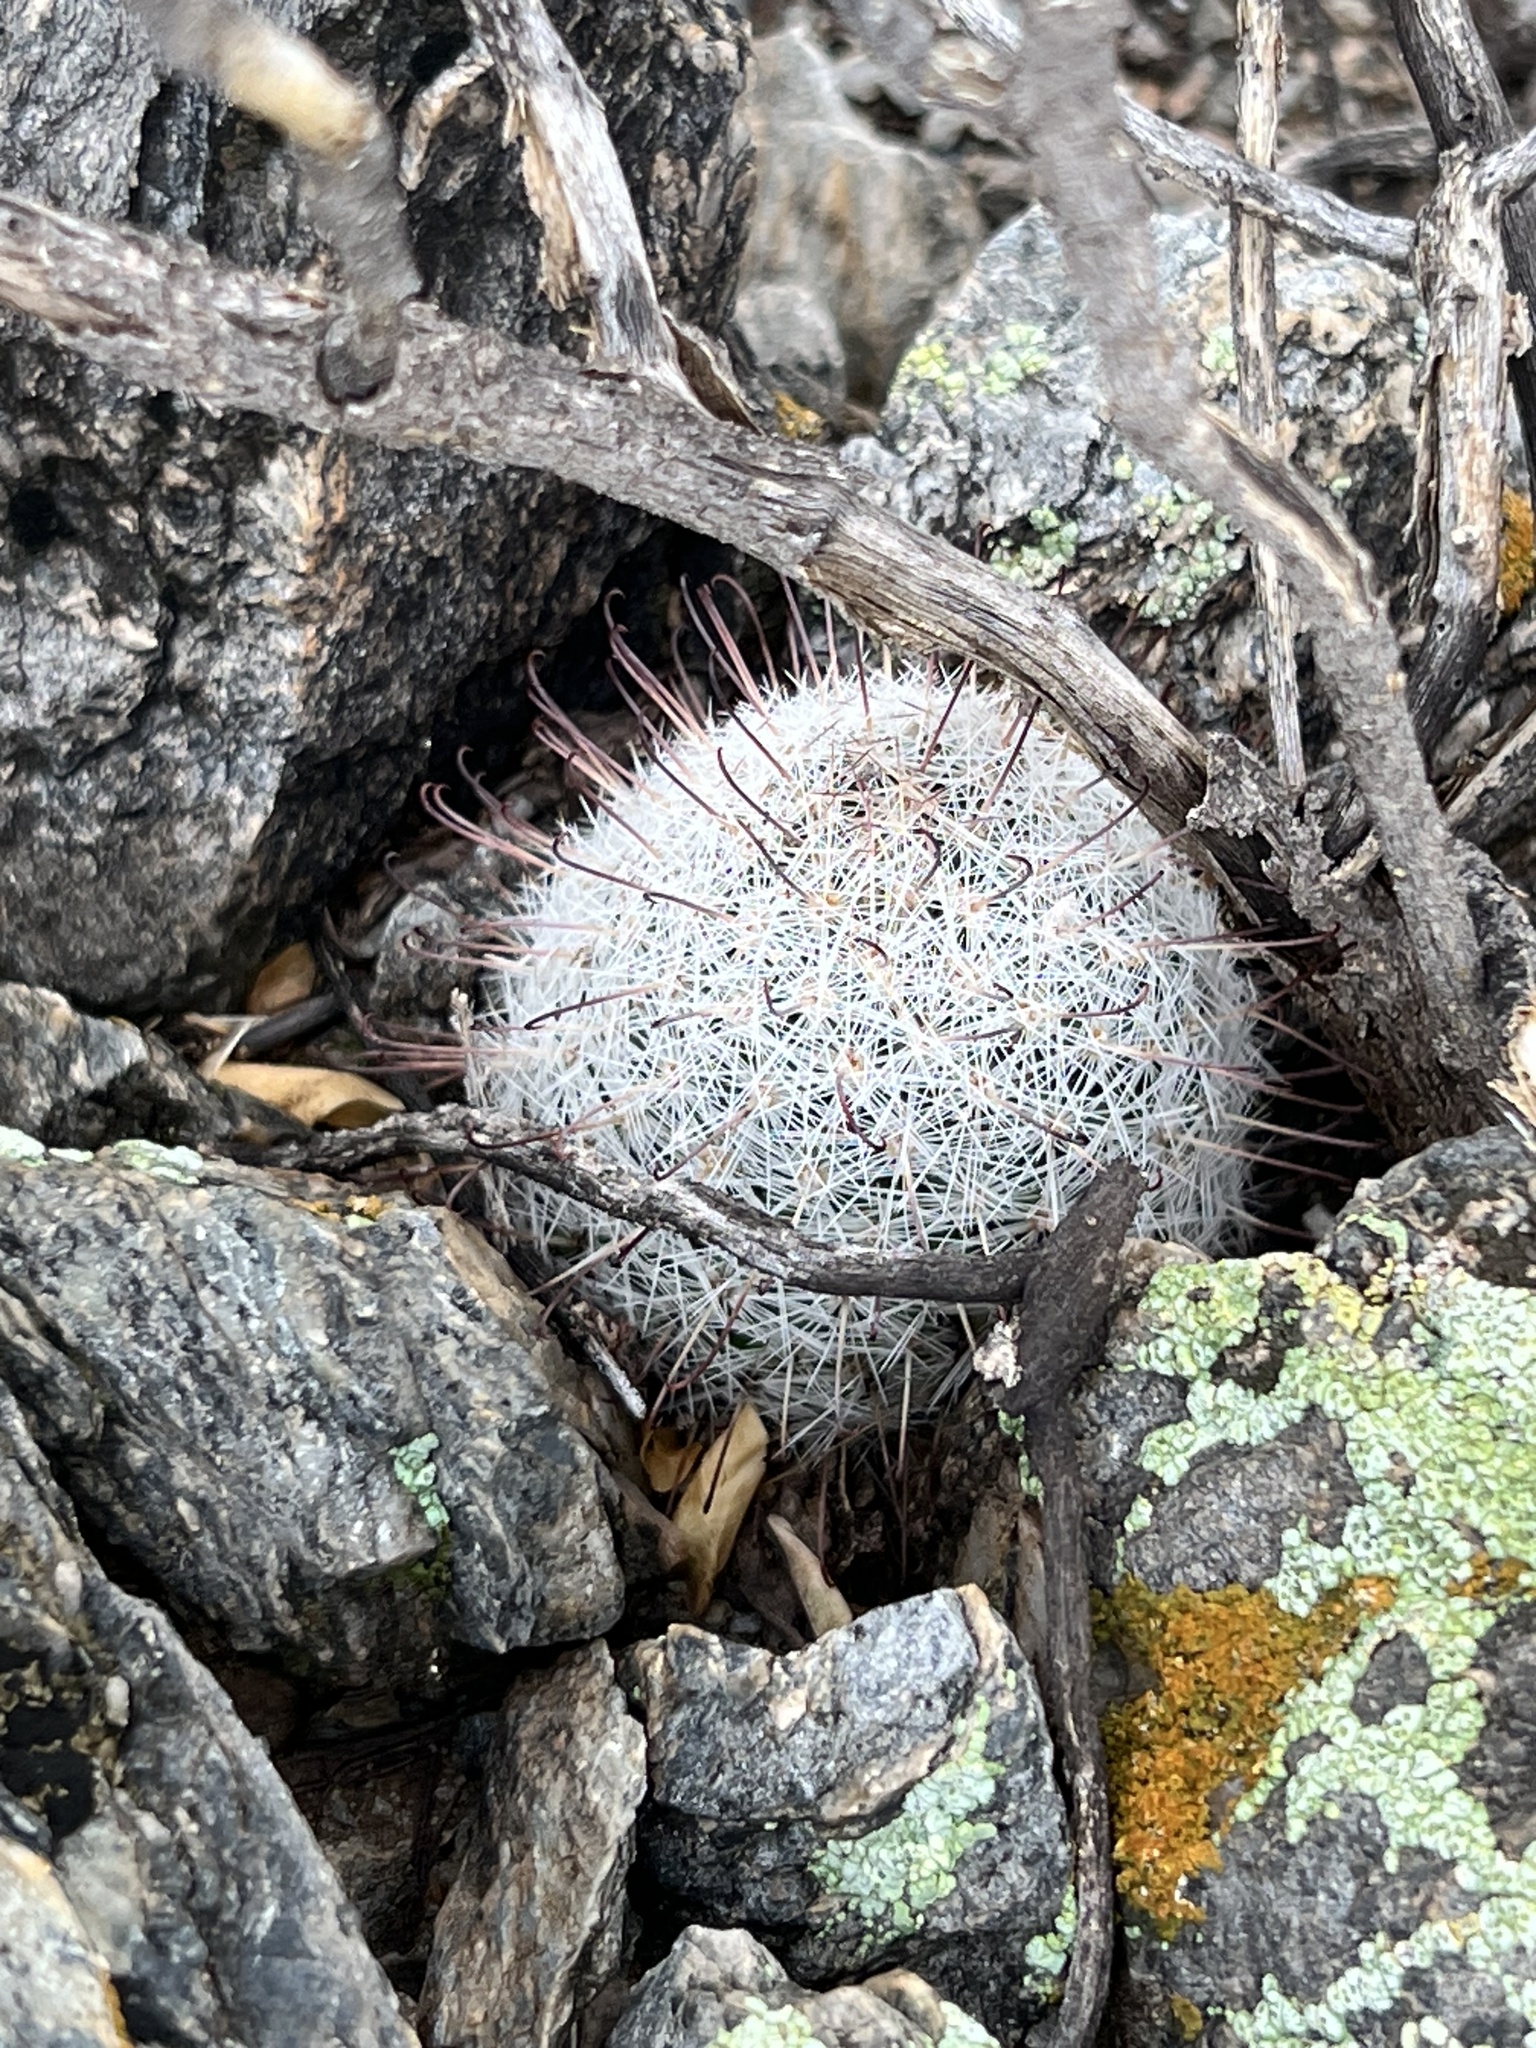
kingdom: Plantae
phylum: Tracheophyta
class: Magnoliopsida
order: Caryophyllales
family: Cactaceae
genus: Cochemiea
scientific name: Cochemiea grahamii
